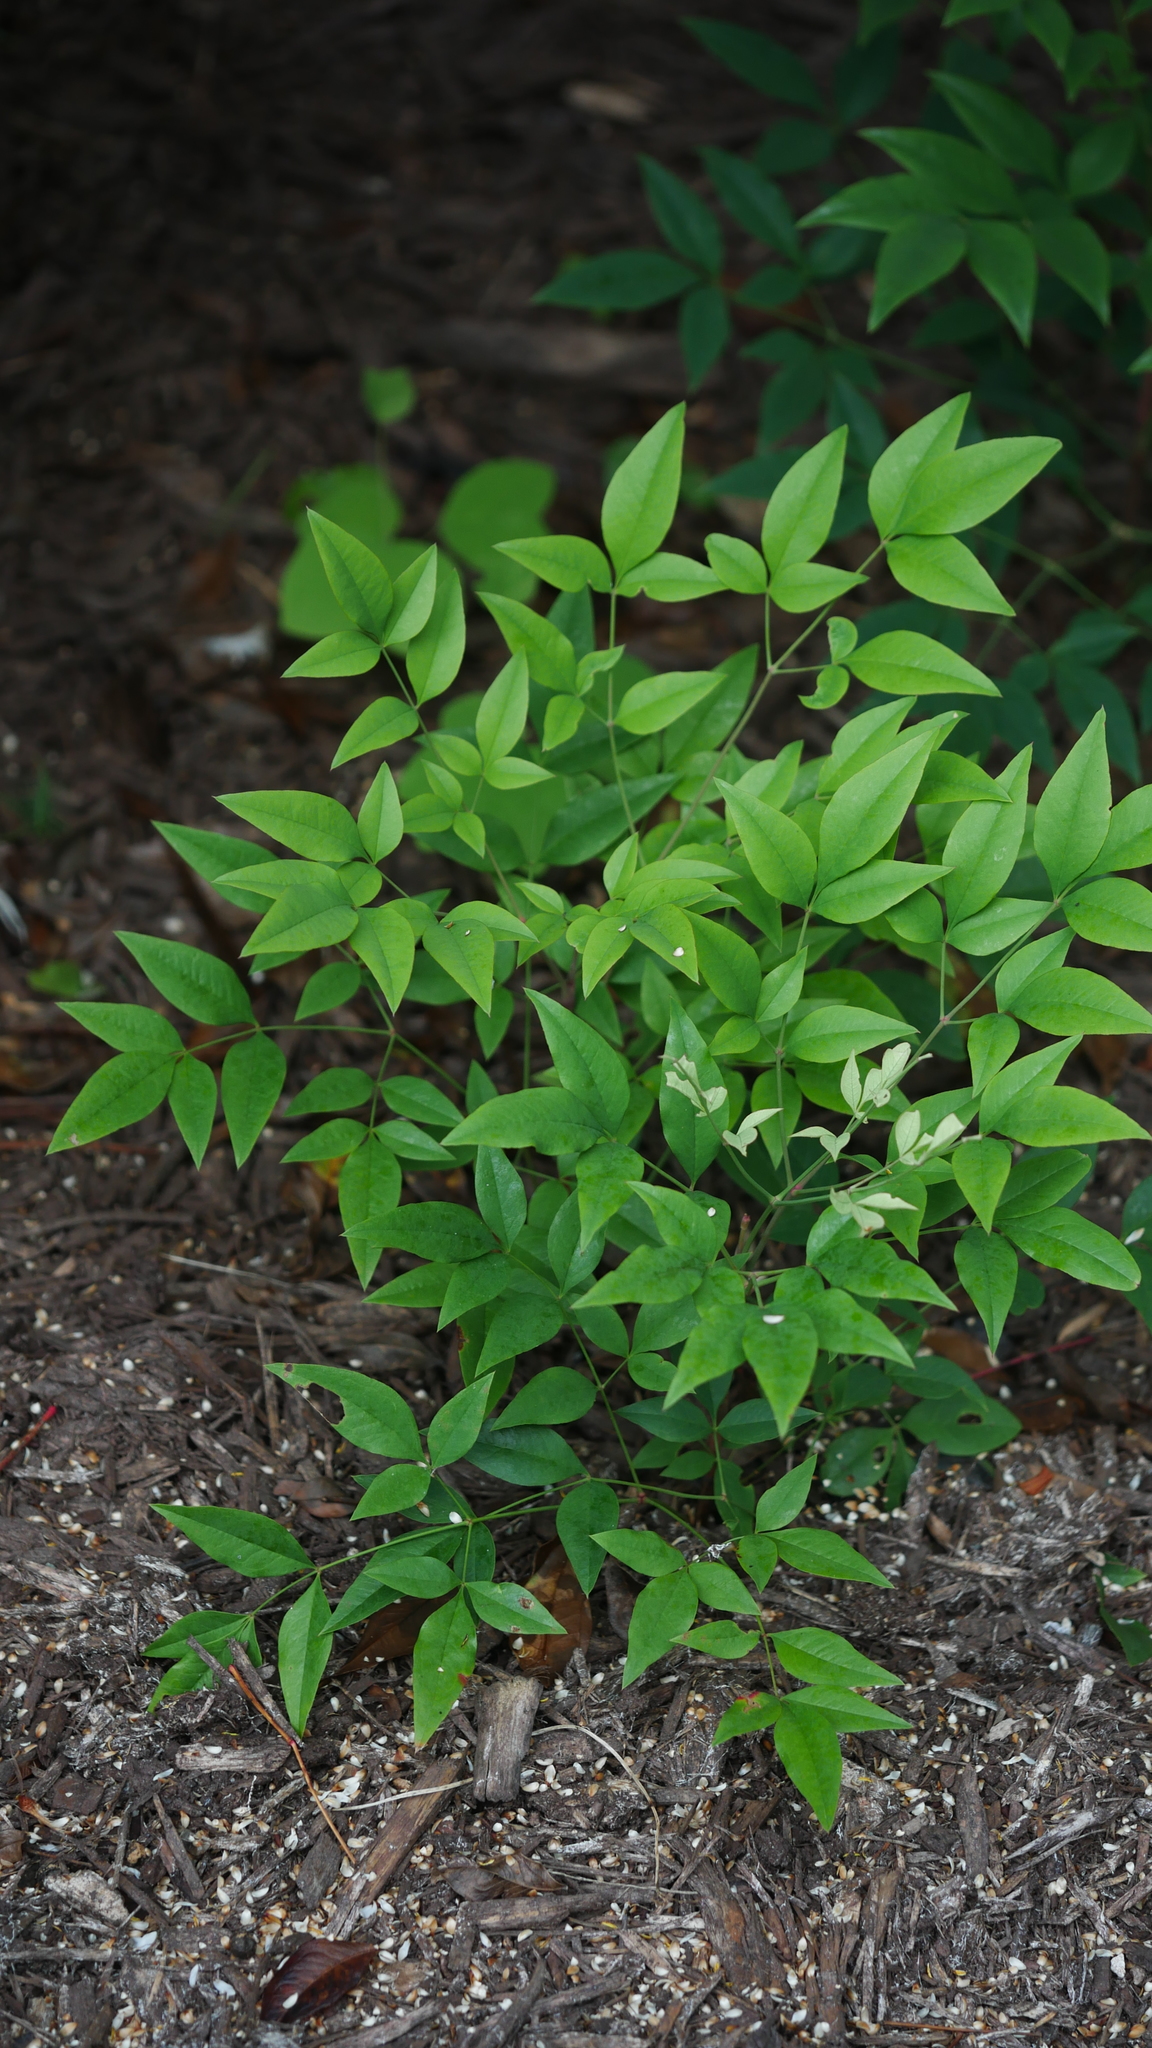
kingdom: Plantae
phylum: Tracheophyta
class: Magnoliopsida
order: Ranunculales
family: Berberidaceae
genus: Nandina
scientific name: Nandina domestica
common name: Sacred bamboo
